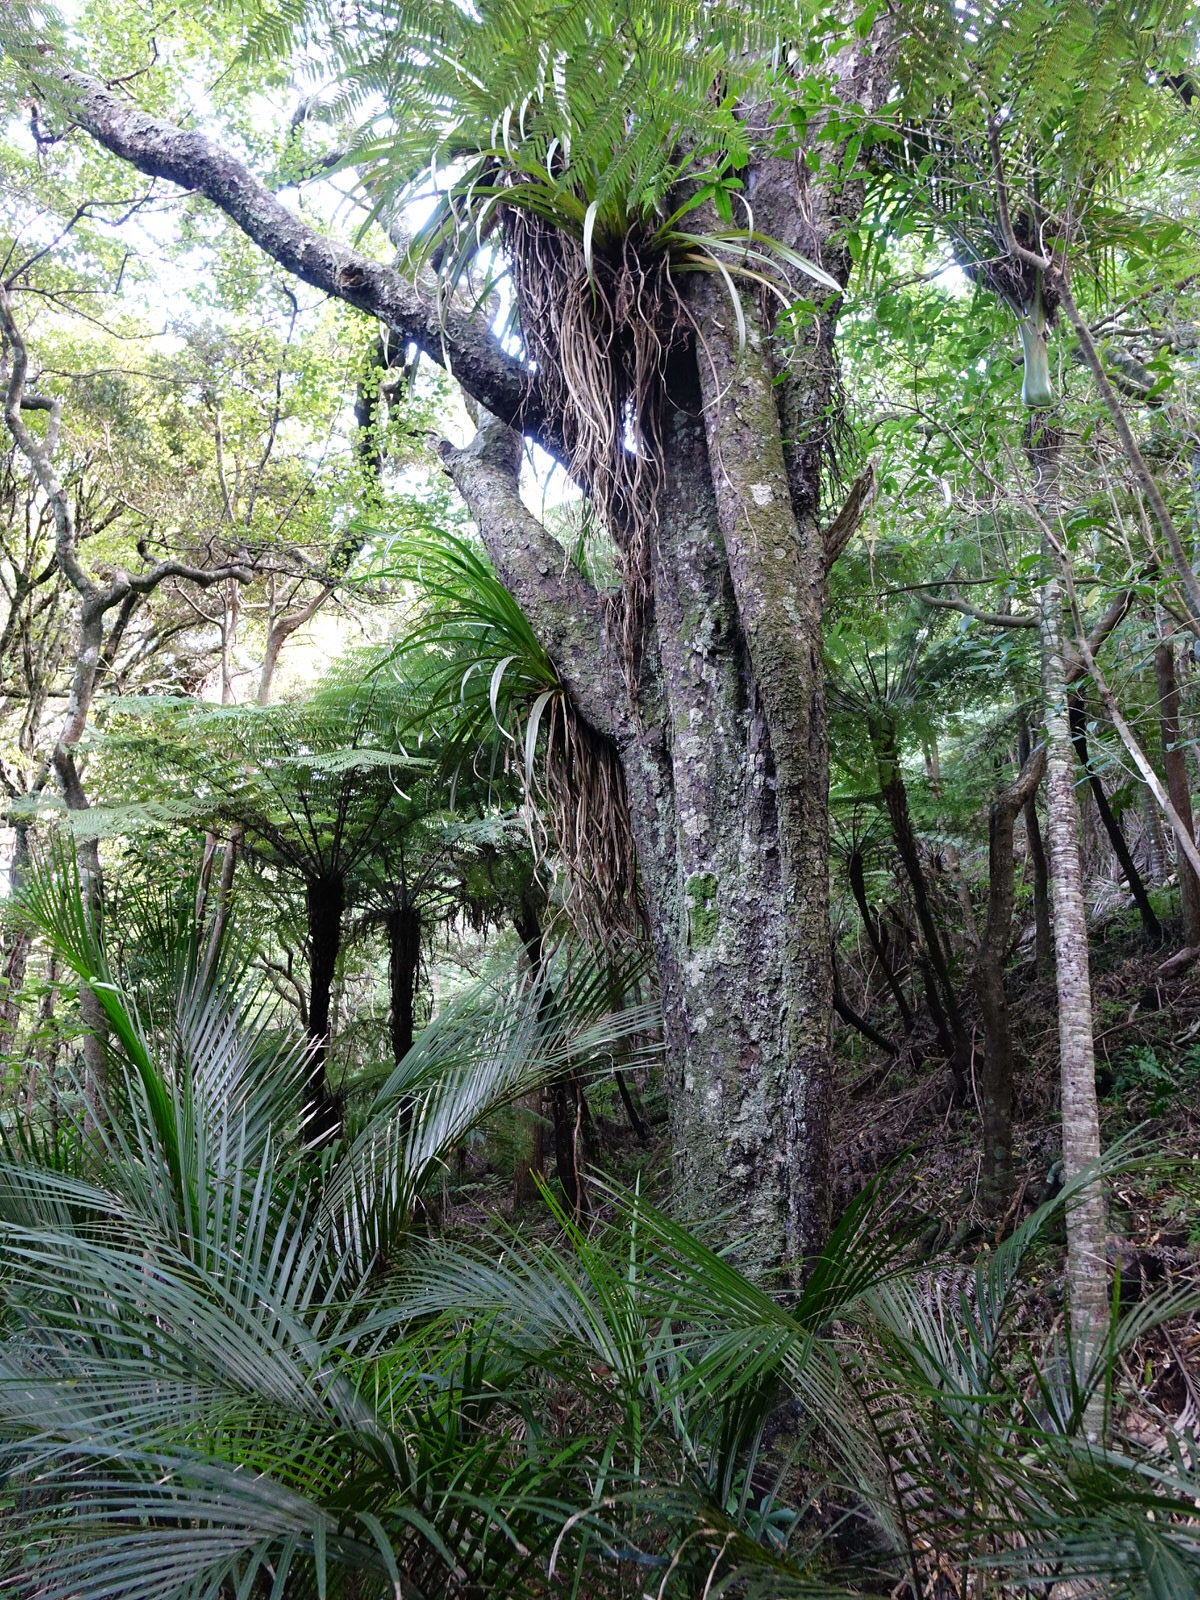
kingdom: Plantae
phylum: Tracheophyta
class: Pinopsida
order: Pinales
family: Podocarpaceae
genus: Dacrycarpus
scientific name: Dacrycarpus dacrydioides
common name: White pine
